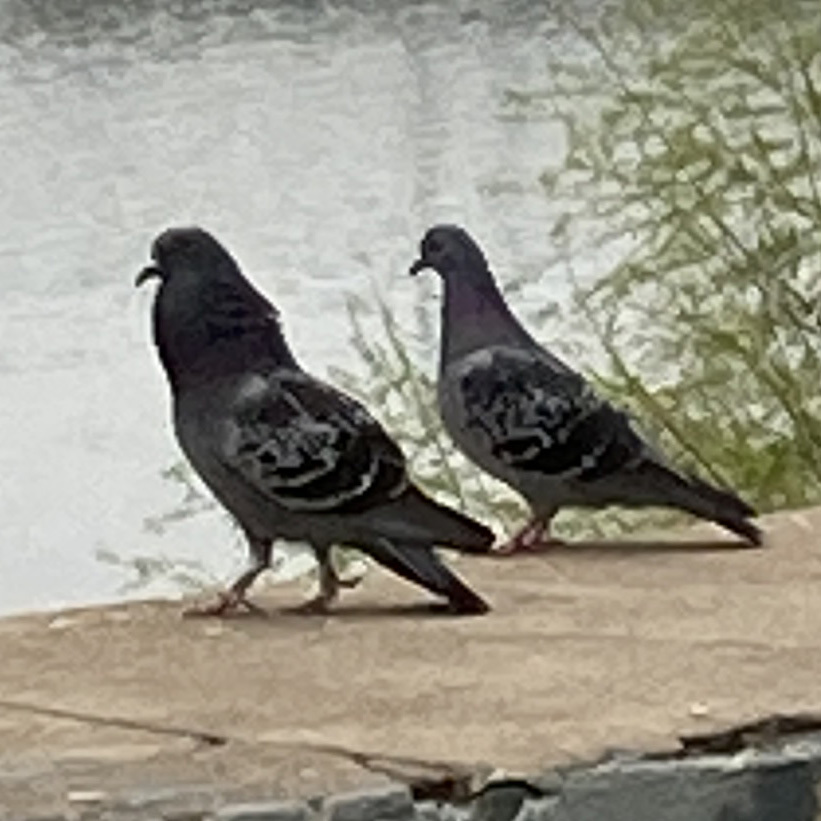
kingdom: Animalia
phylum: Chordata
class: Aves
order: Columbiformes
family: Columbidae
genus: Columba
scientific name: Columba livia
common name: Rock pigeon
